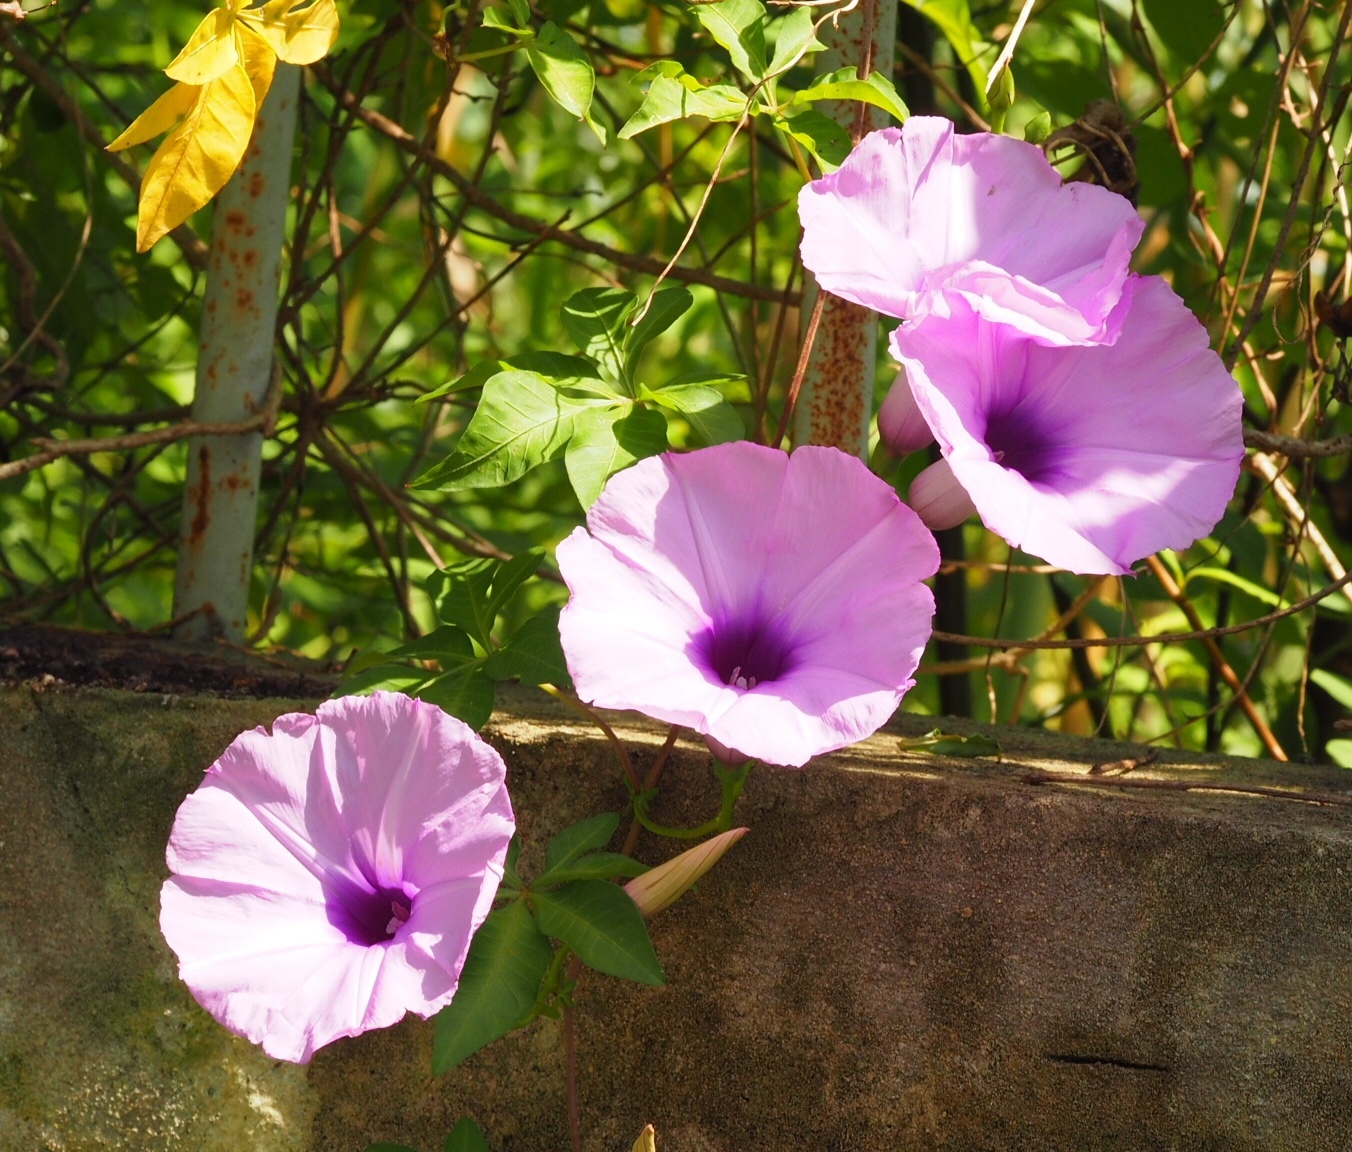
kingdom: Plantae
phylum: Tracheophyta
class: Magnoliopsida
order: Solanales
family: Convolvulaceae
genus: Ipomoea
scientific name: Ipomoea cairica
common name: Mile a minute vine
